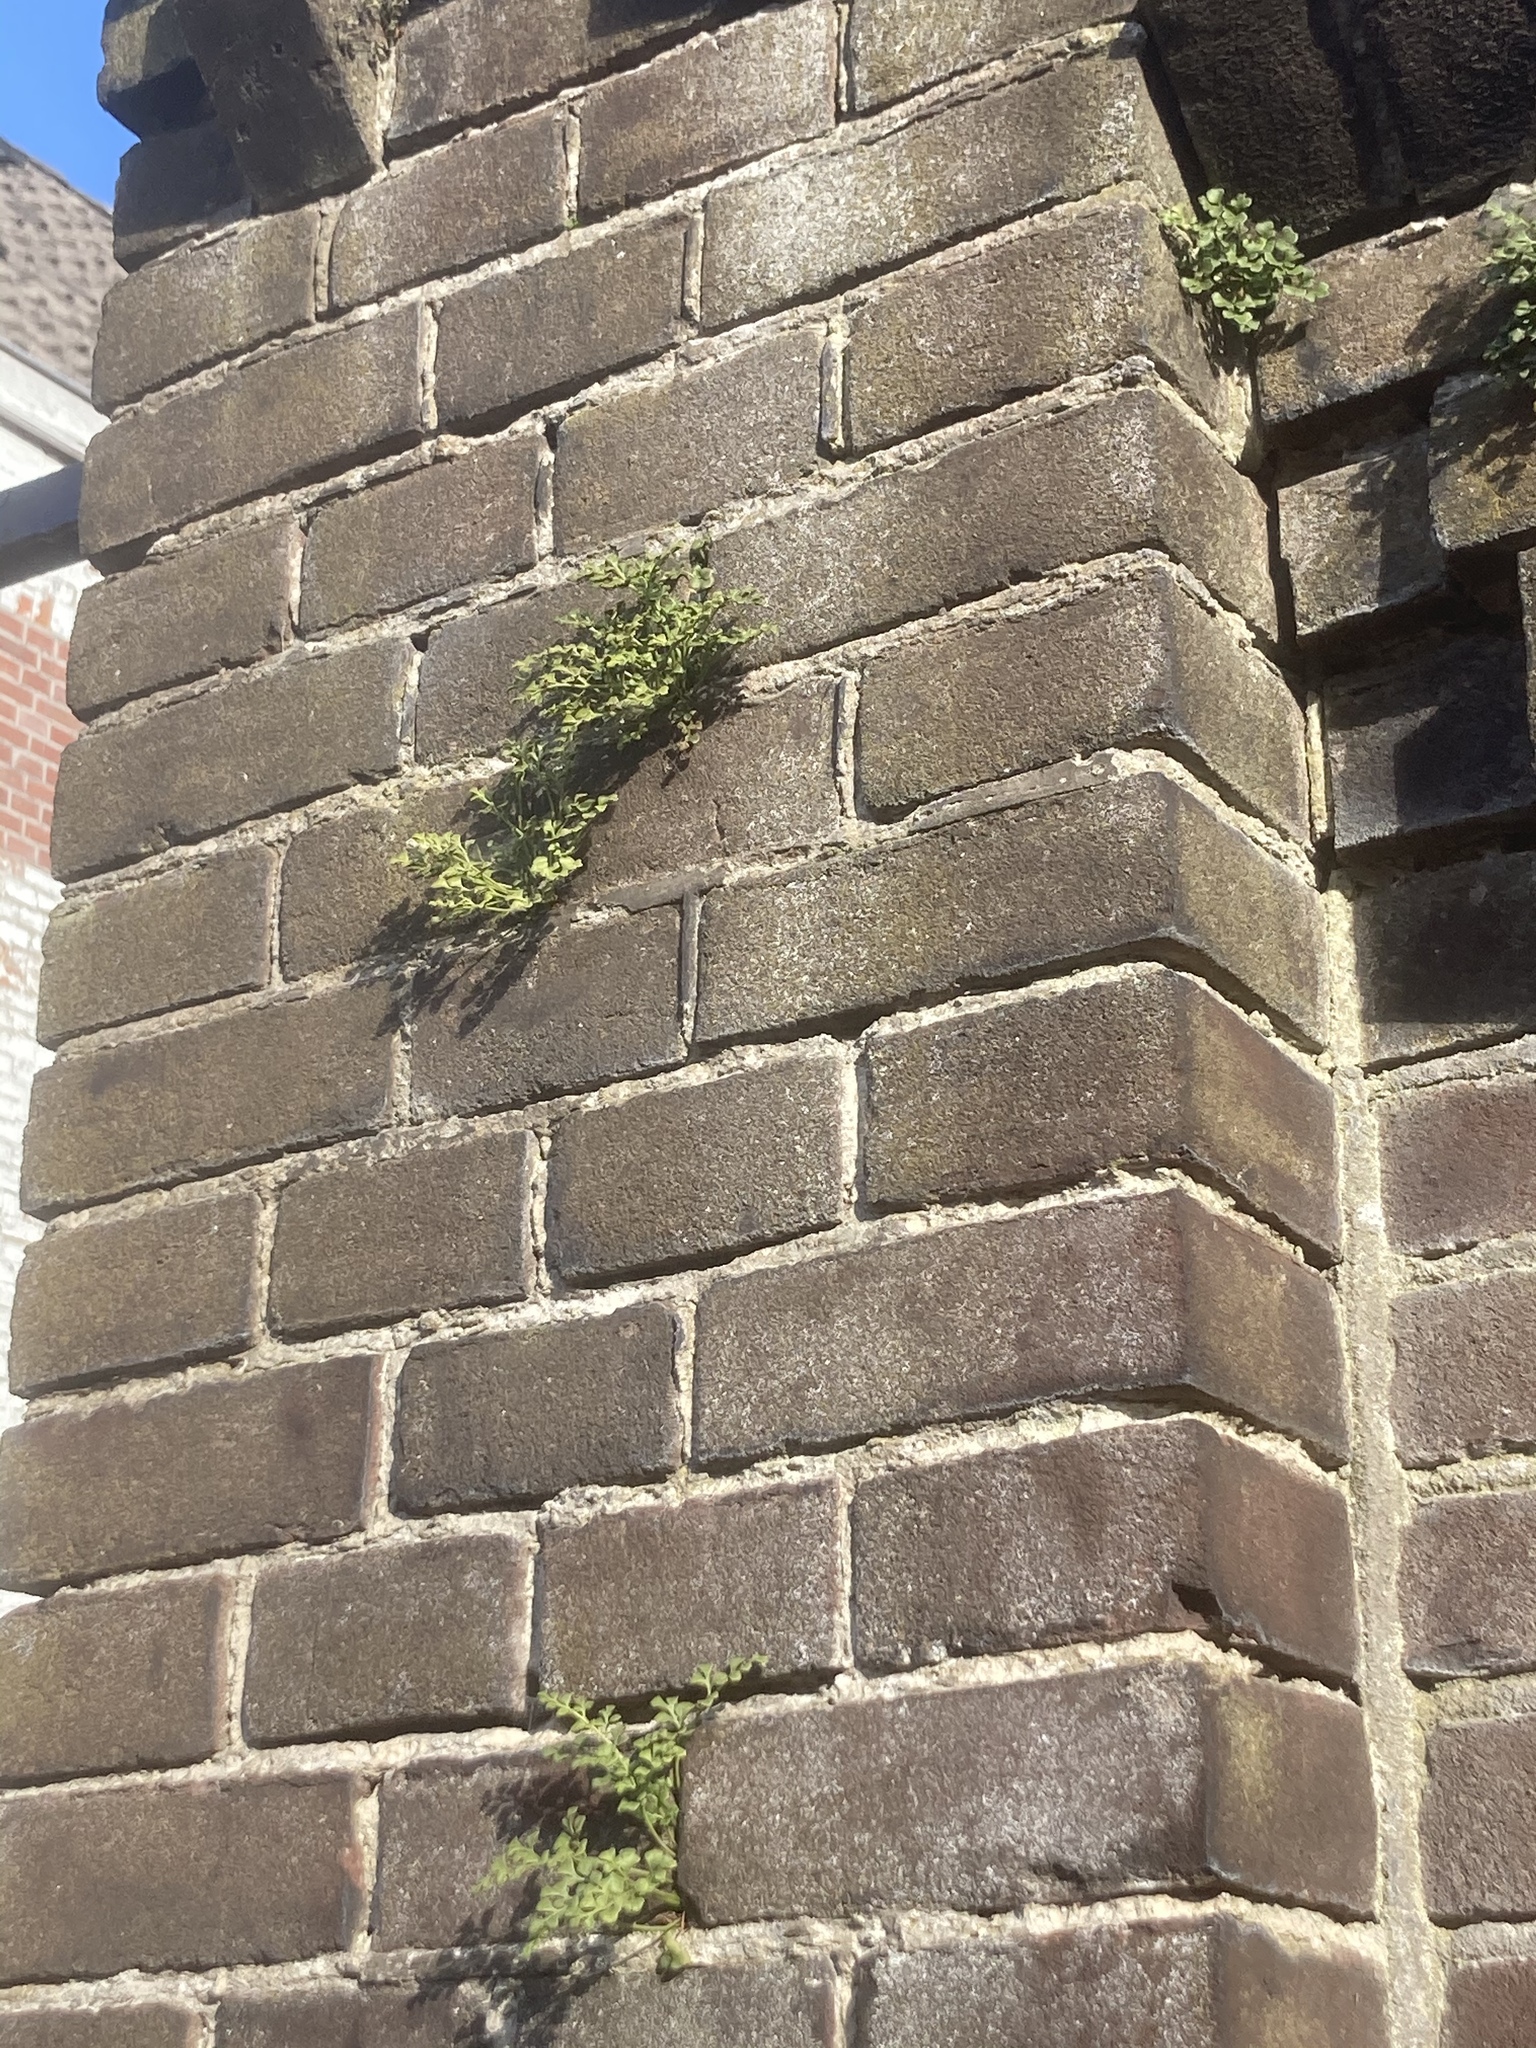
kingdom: Plantae
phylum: Tracheophyta
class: Polypodiopsida
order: Polypodiales
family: Aspleniaceae
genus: Asplenium
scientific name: Asplenium ruta-muraria
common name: Wall-rue
